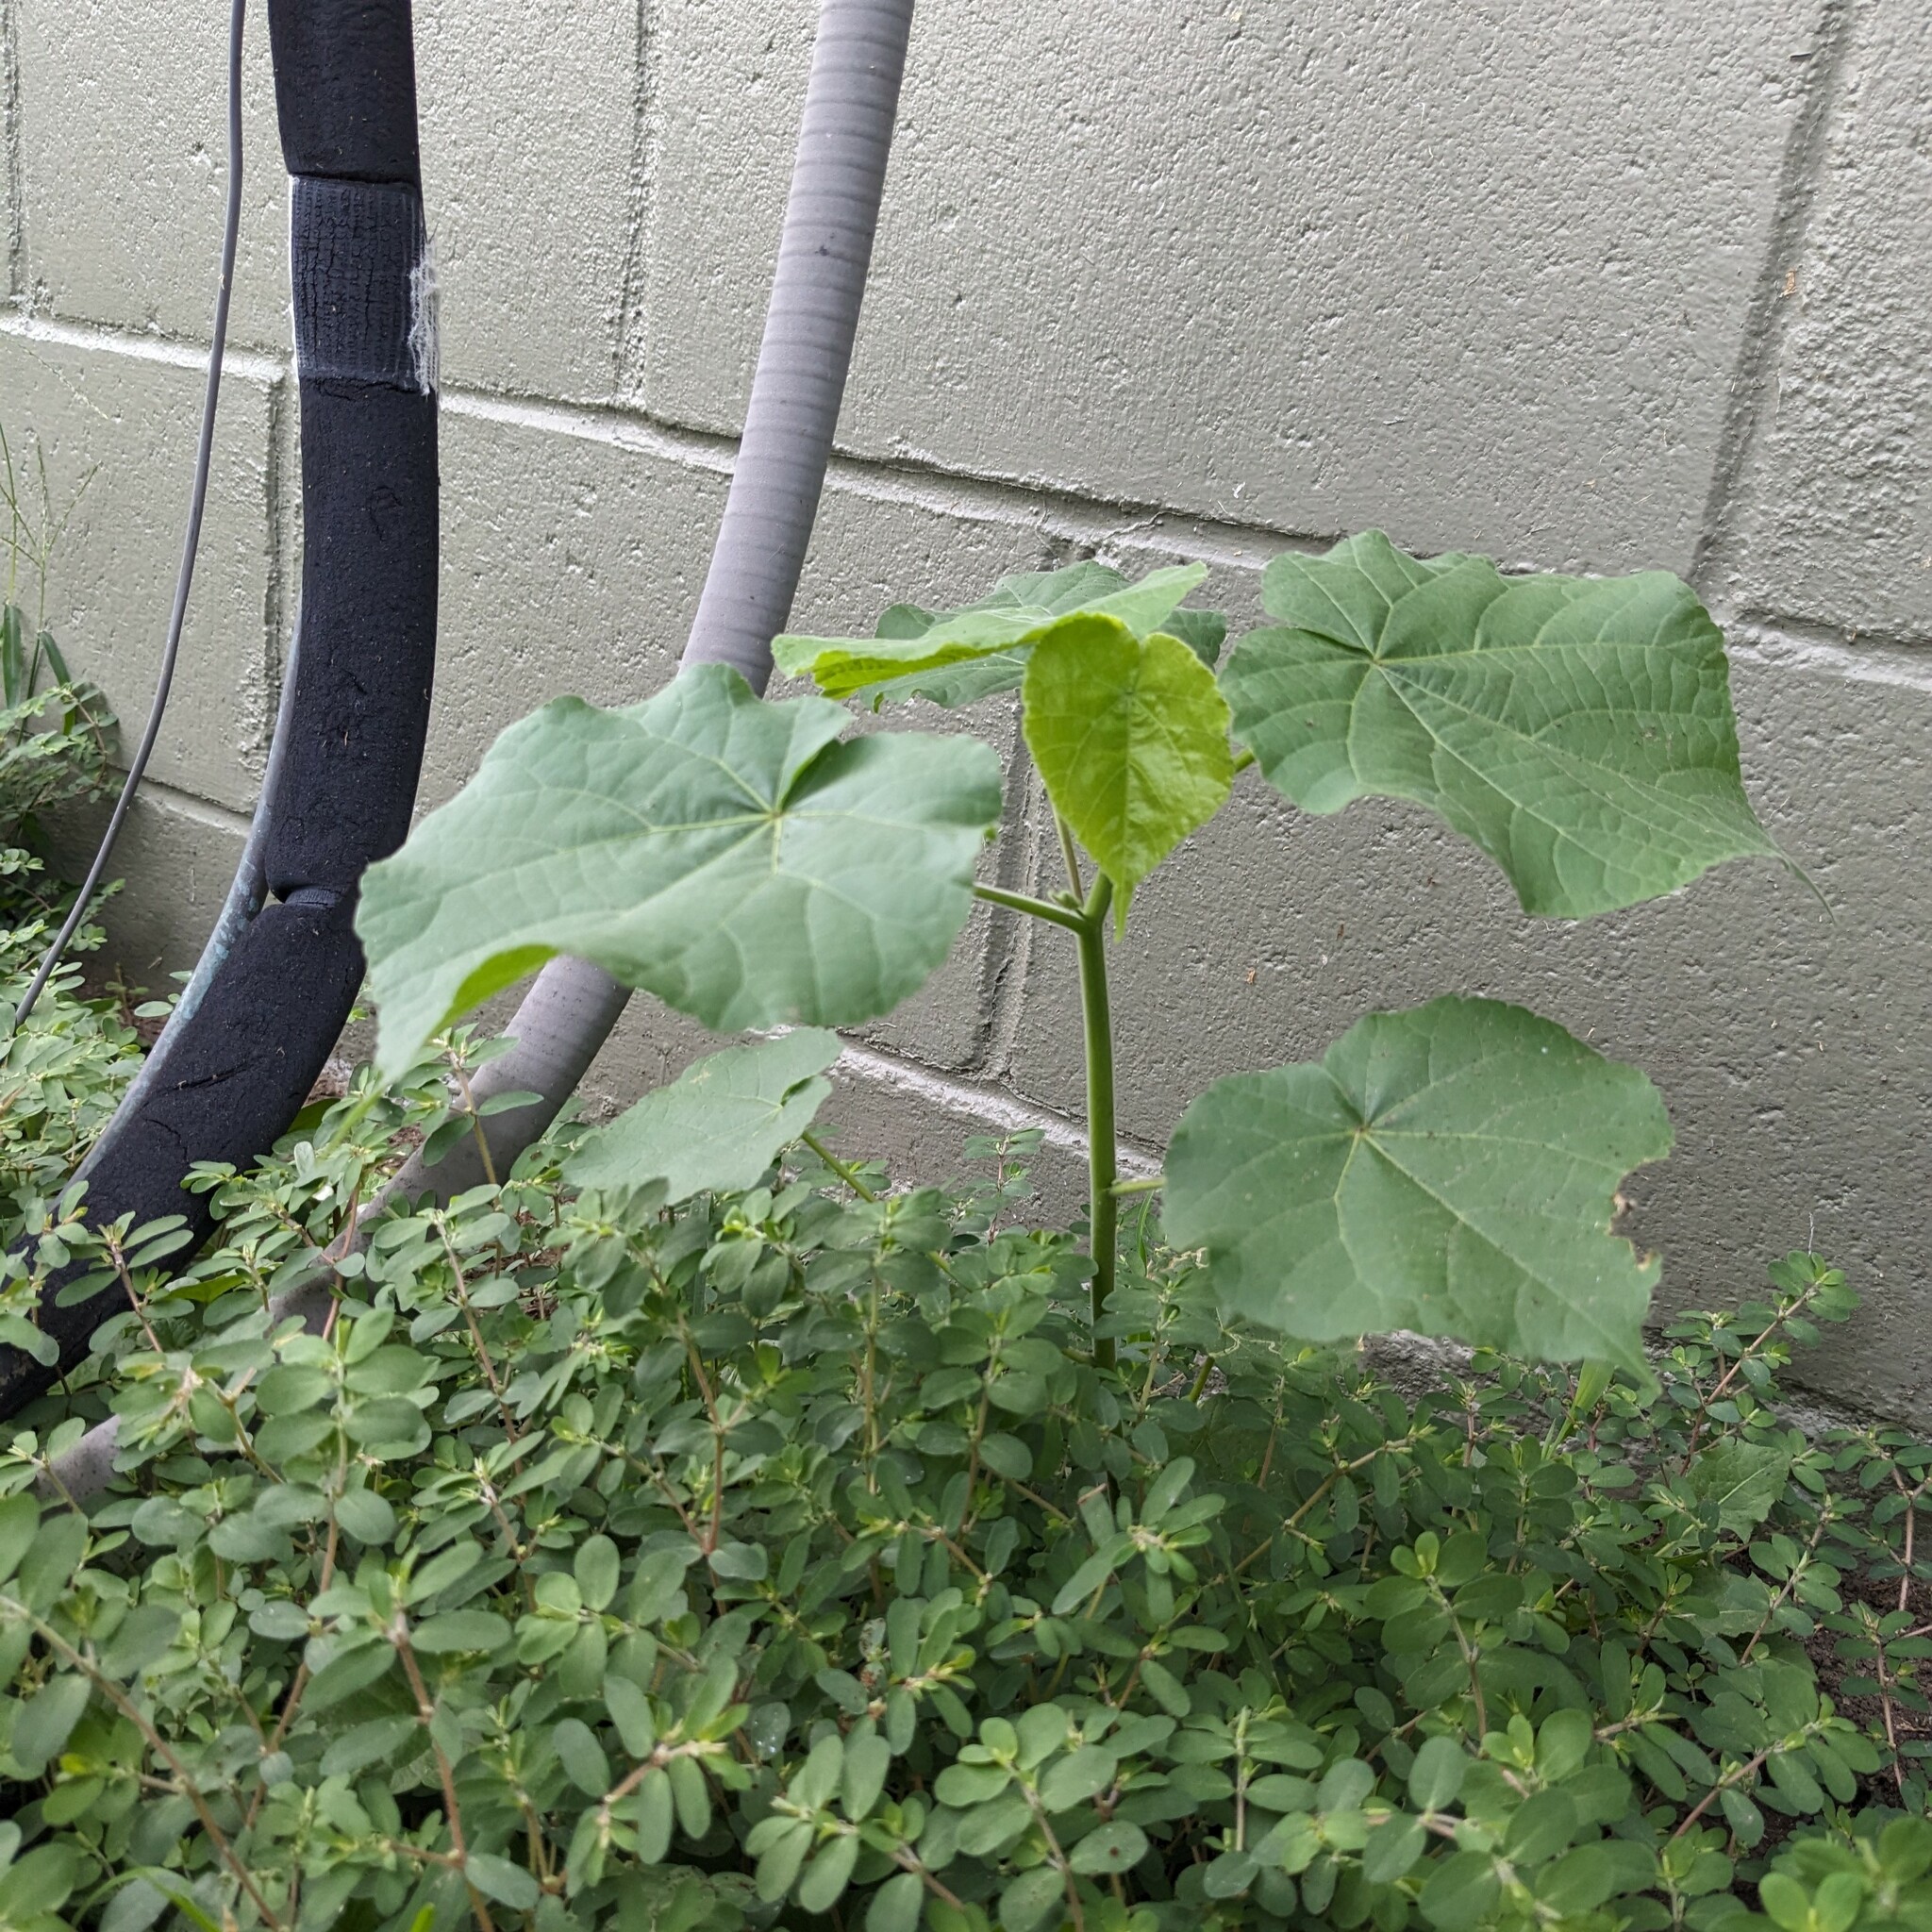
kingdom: Plantae
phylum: Tracheophyta
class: Magnoliopsida
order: Malvales
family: Malvaceae
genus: Abutilon
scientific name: Abutilon theophrasti
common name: Velvetleaf
